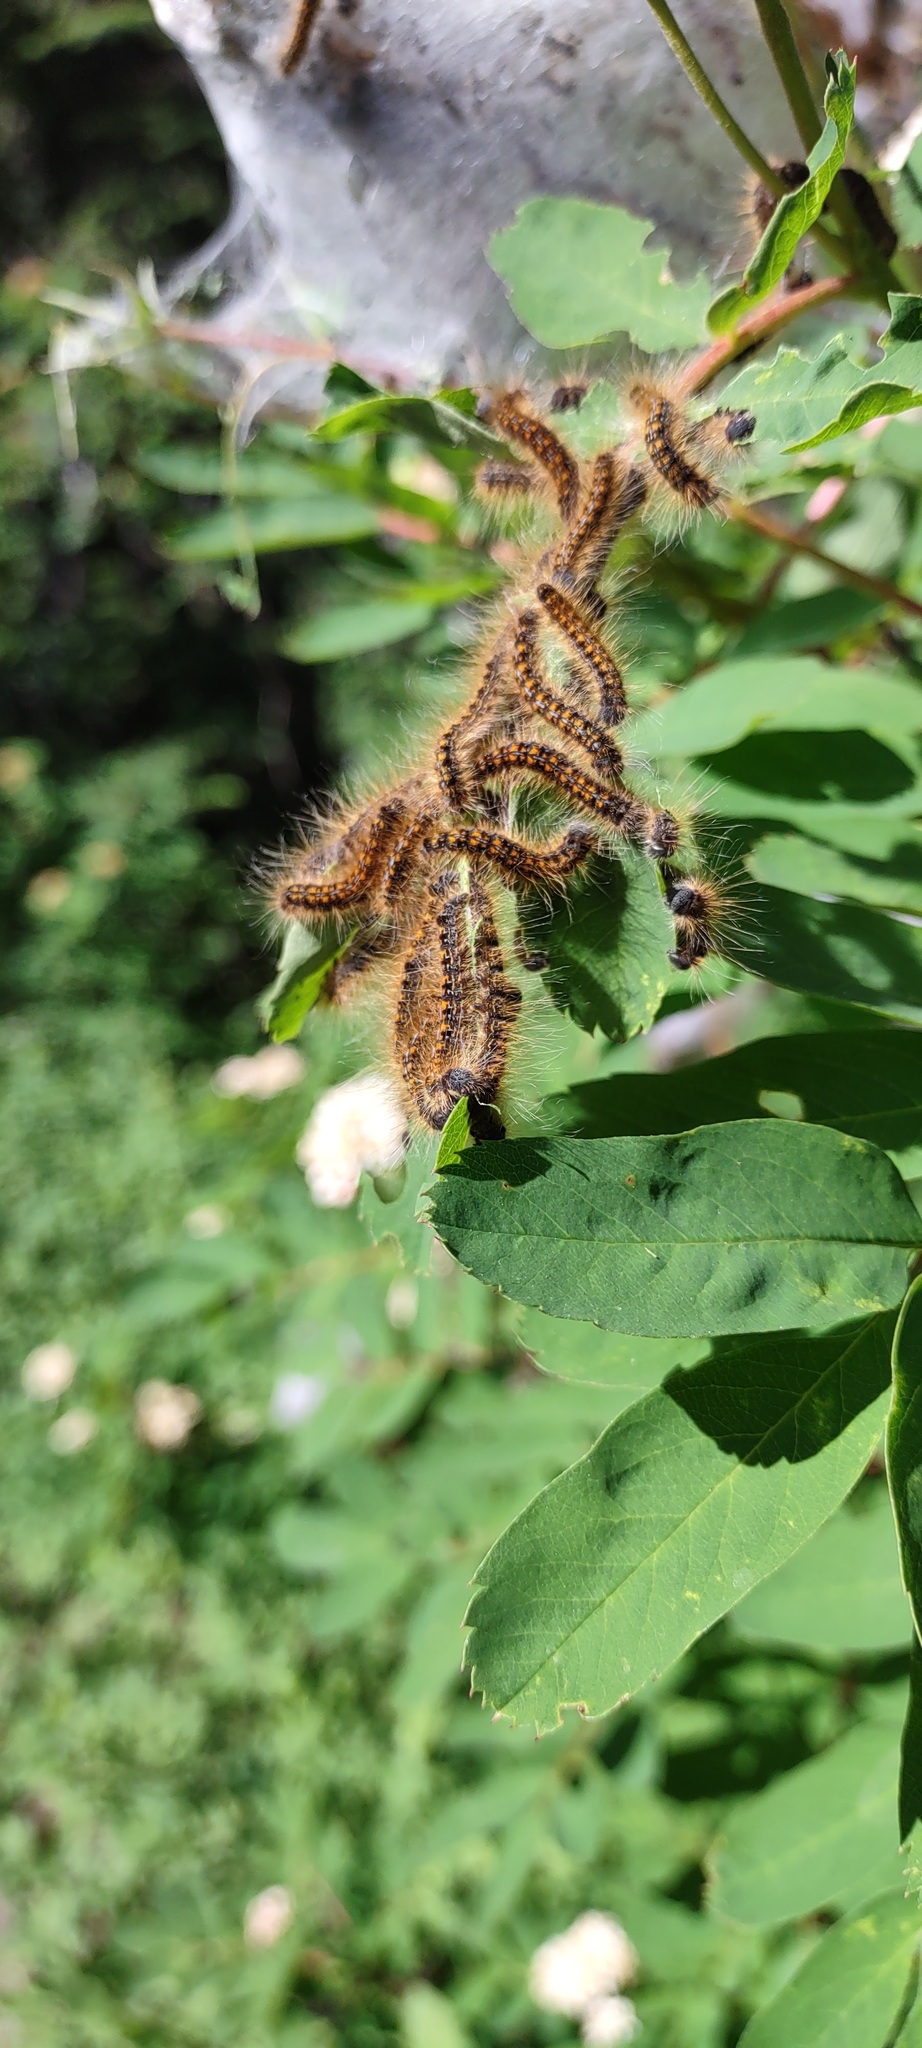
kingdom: Animalia
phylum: Arthropoda
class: Insecta
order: Lepidoptera
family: Lasiocampidae
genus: Malacosoma
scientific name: Malacosoma californica
